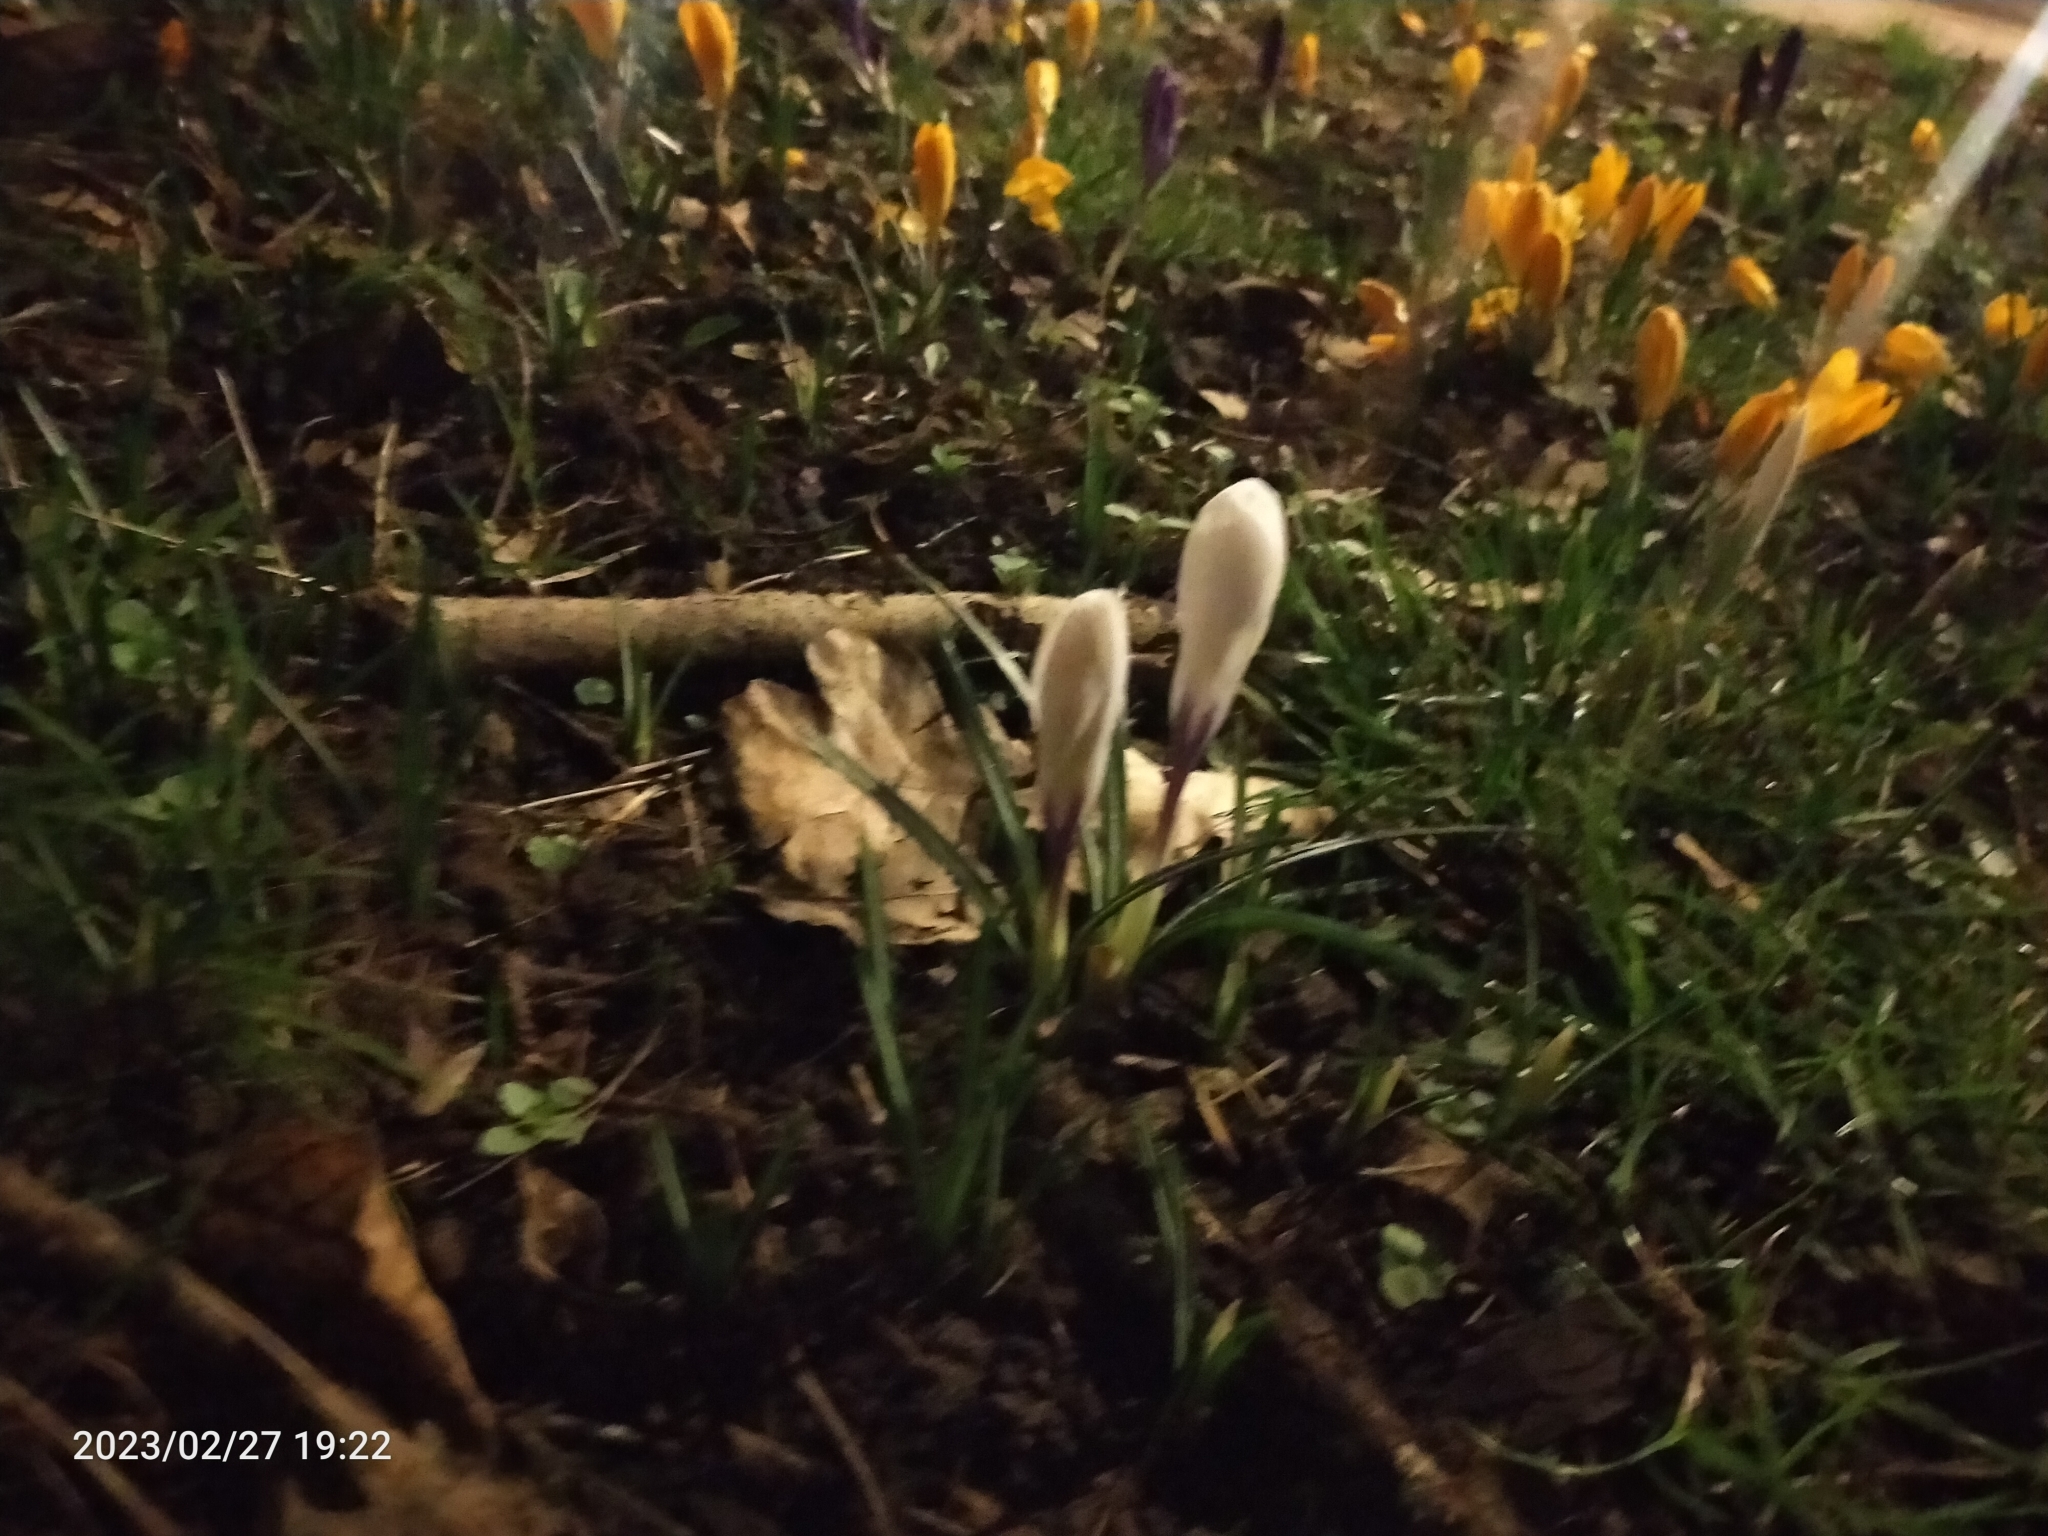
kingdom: Plantae
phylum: Tracheophyta
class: Liliopsida
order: Asparagales
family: Iridaceae
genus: Crocus
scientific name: Crocus neapolitanus
